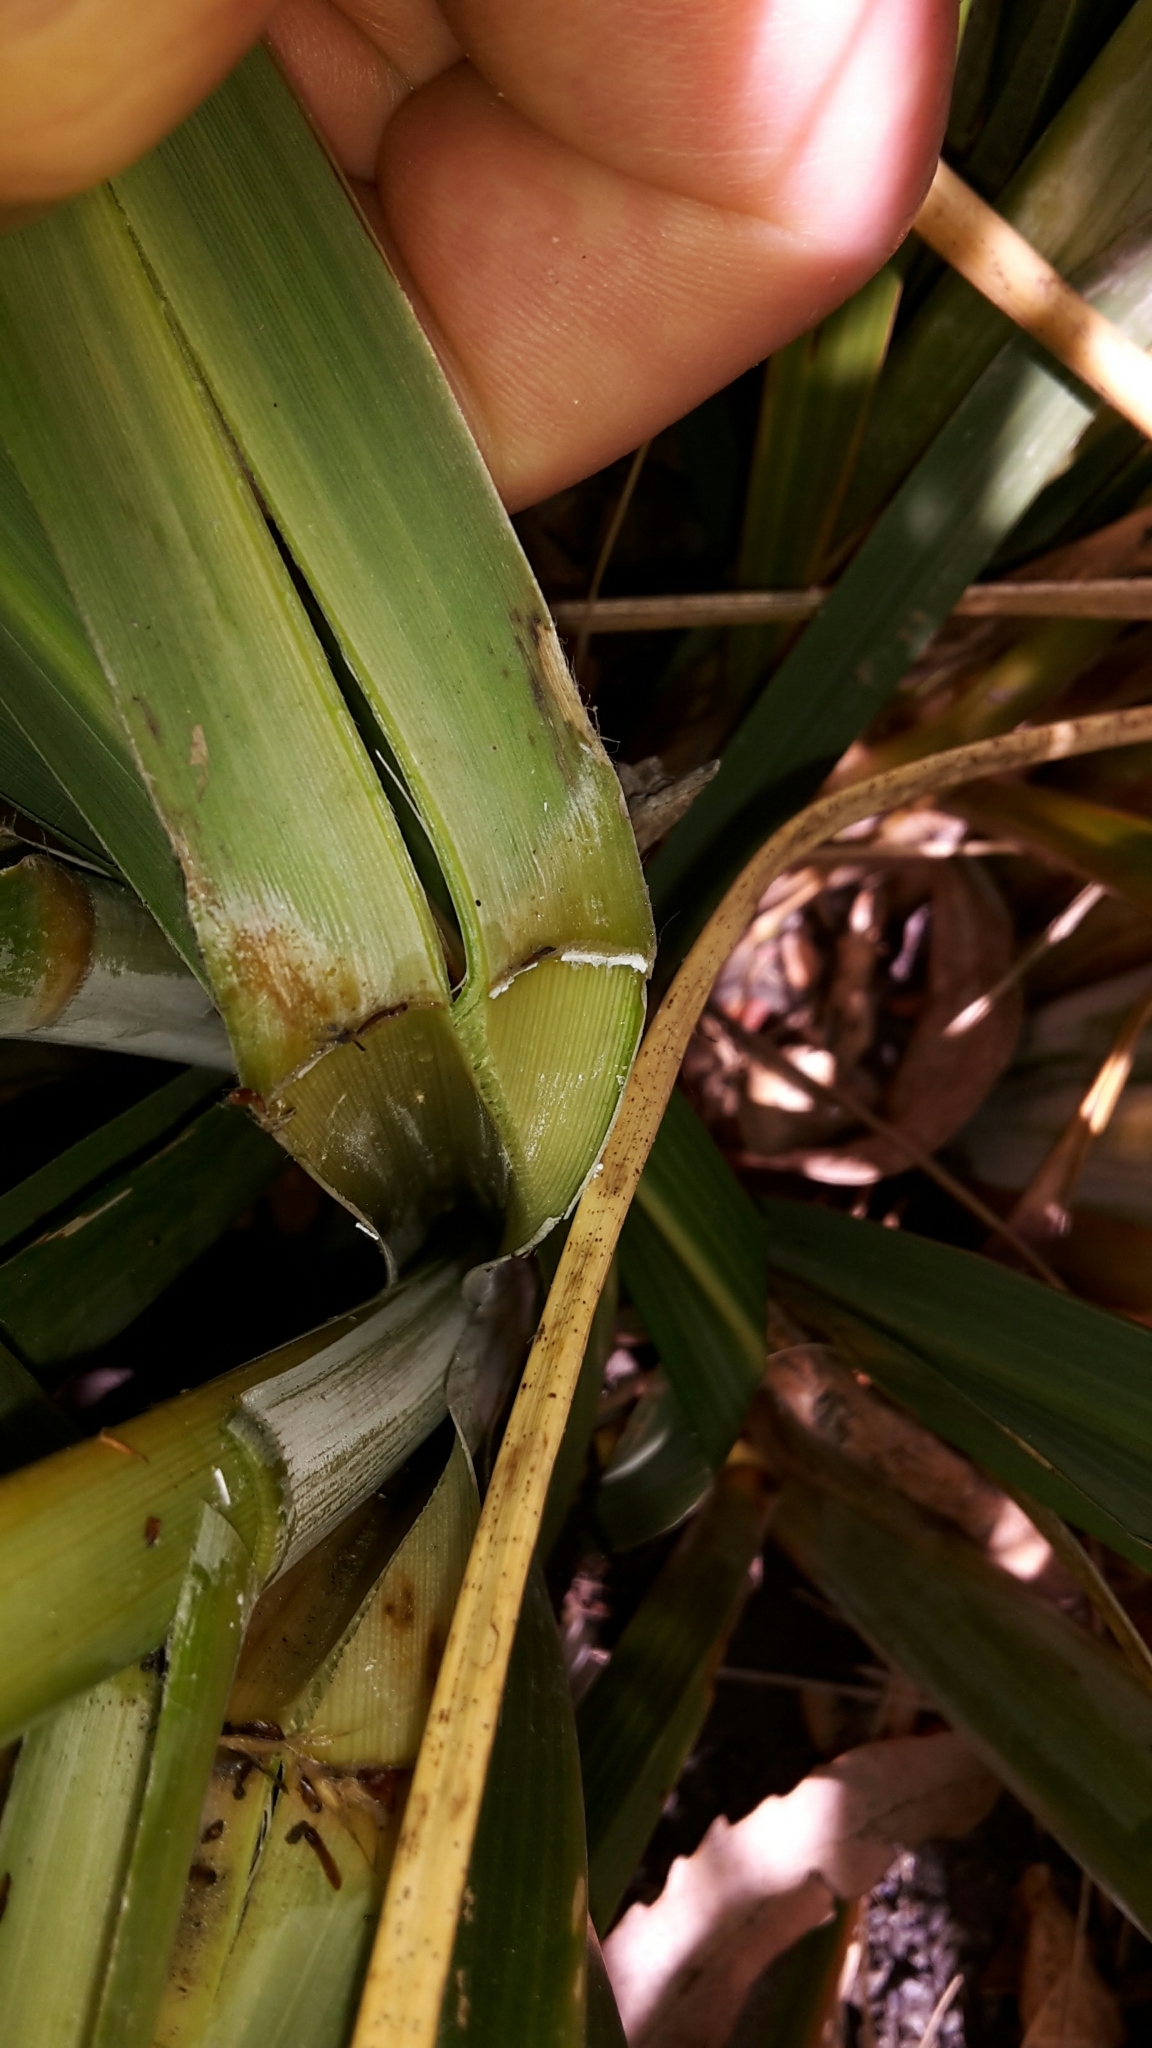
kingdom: Plantae
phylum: Tracheophyta
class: Liliopsida
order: Poales
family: Poaceae
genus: Austroderia
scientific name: Austroderia fulvida
